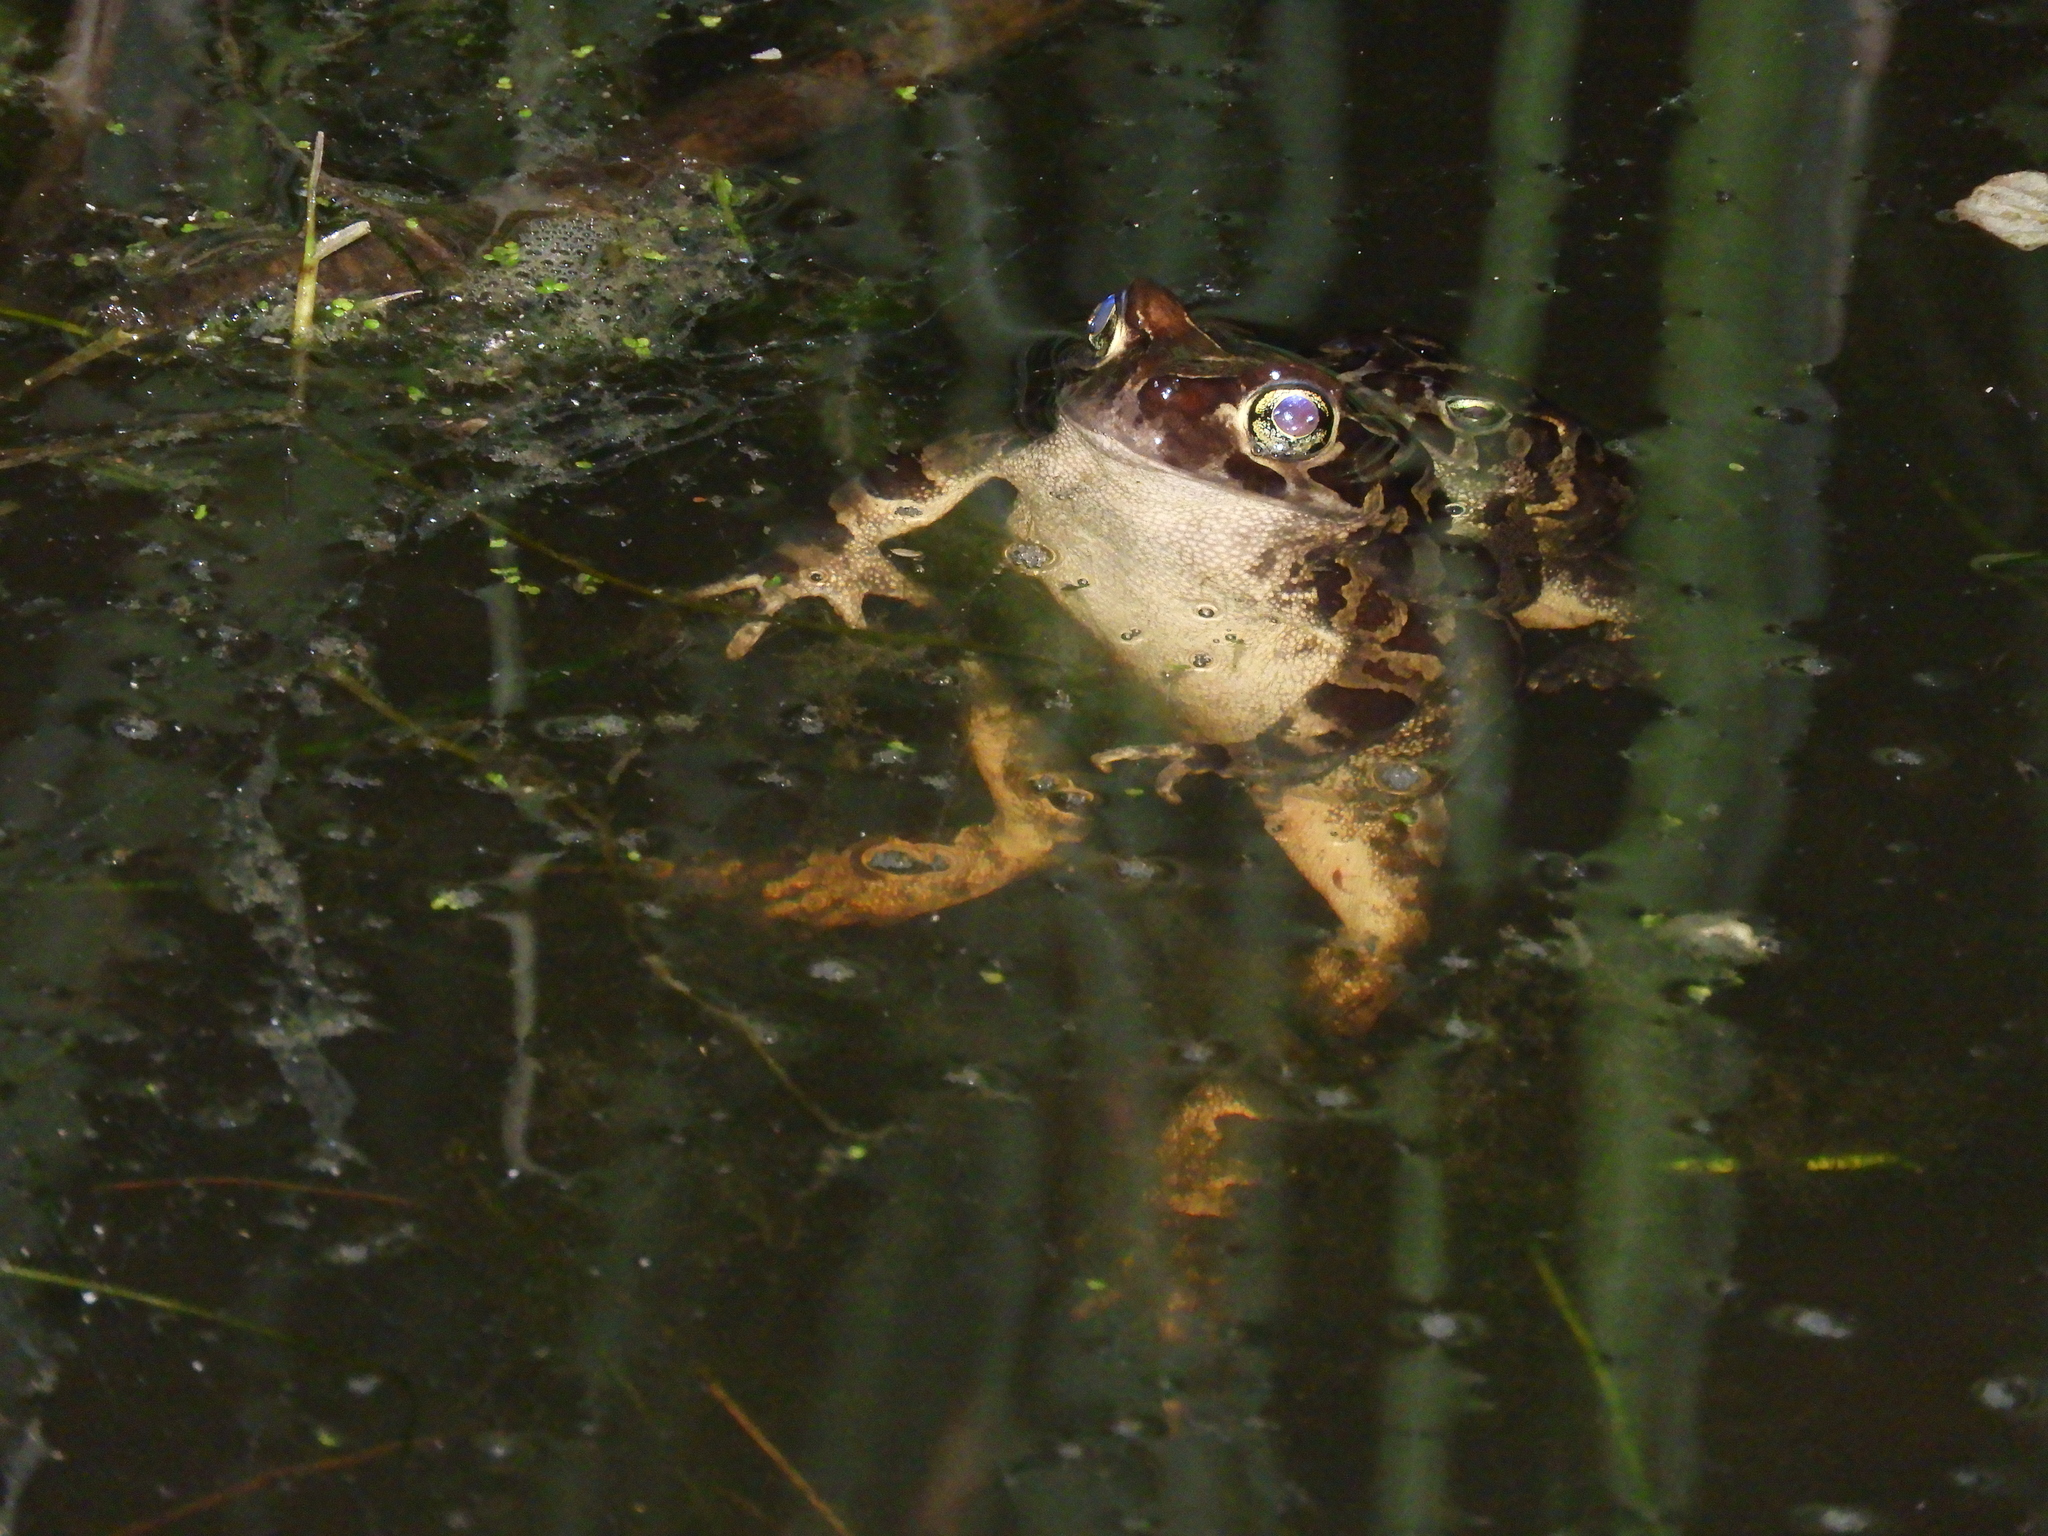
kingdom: Animalia
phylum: Chordata
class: Amphibia
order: Anura
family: Bufonidae
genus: Sclerophrys
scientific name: Sclerophrys pantherina
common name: Panther toad
